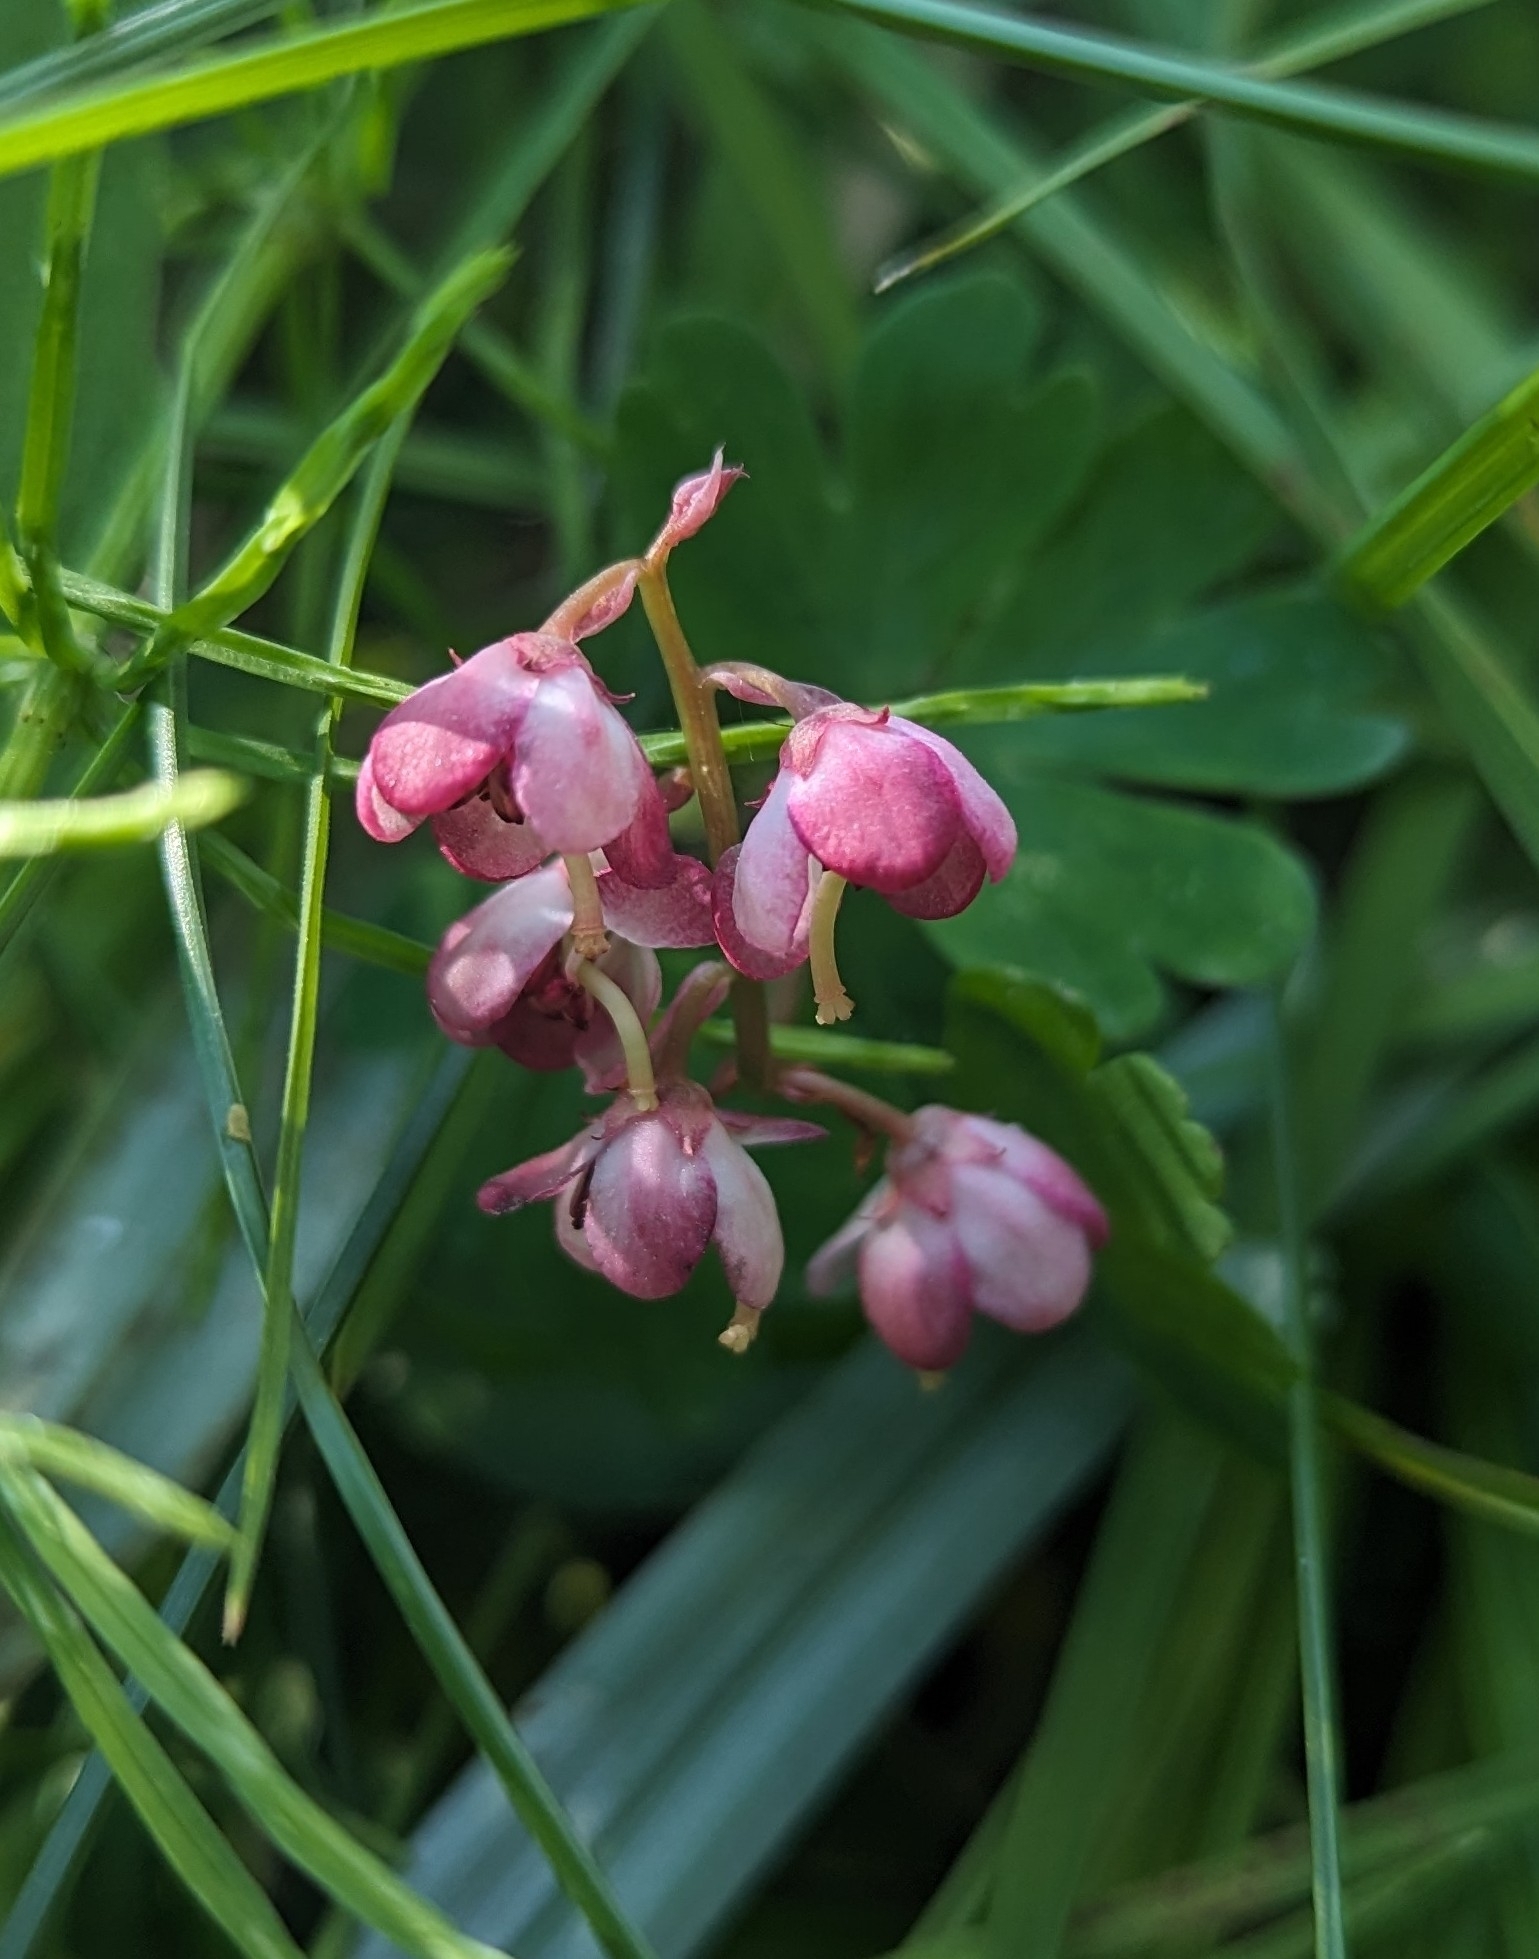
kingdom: Plantae
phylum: Tracheophyta
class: Magnoliopsida
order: Ericales
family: Ericaceae
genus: Pyrola
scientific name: Pyrola asarifolia
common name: Bog wintergreen
